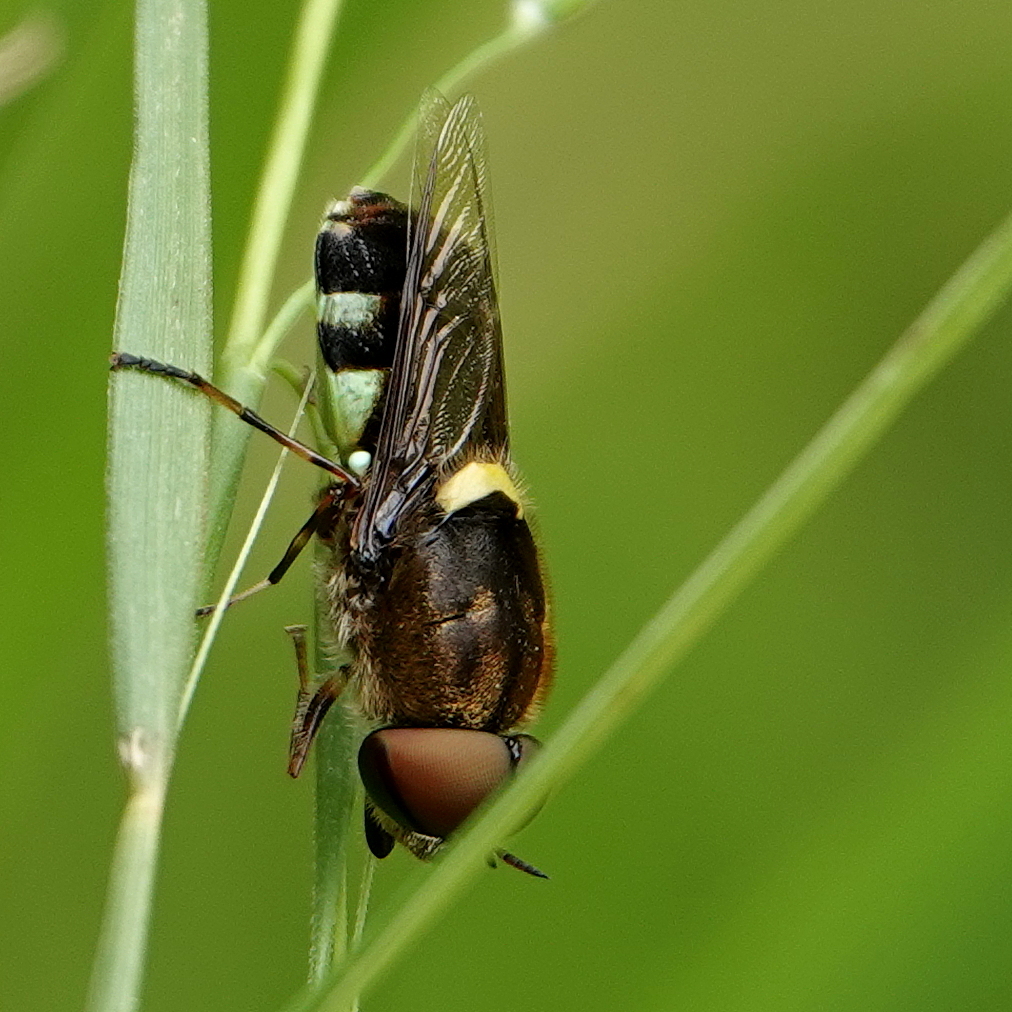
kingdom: Animalia
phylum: Arthropoda
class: Insecta
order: Diptera
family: Stratiomyidae
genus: Odontomyia
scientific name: Odontomyia hunteri
